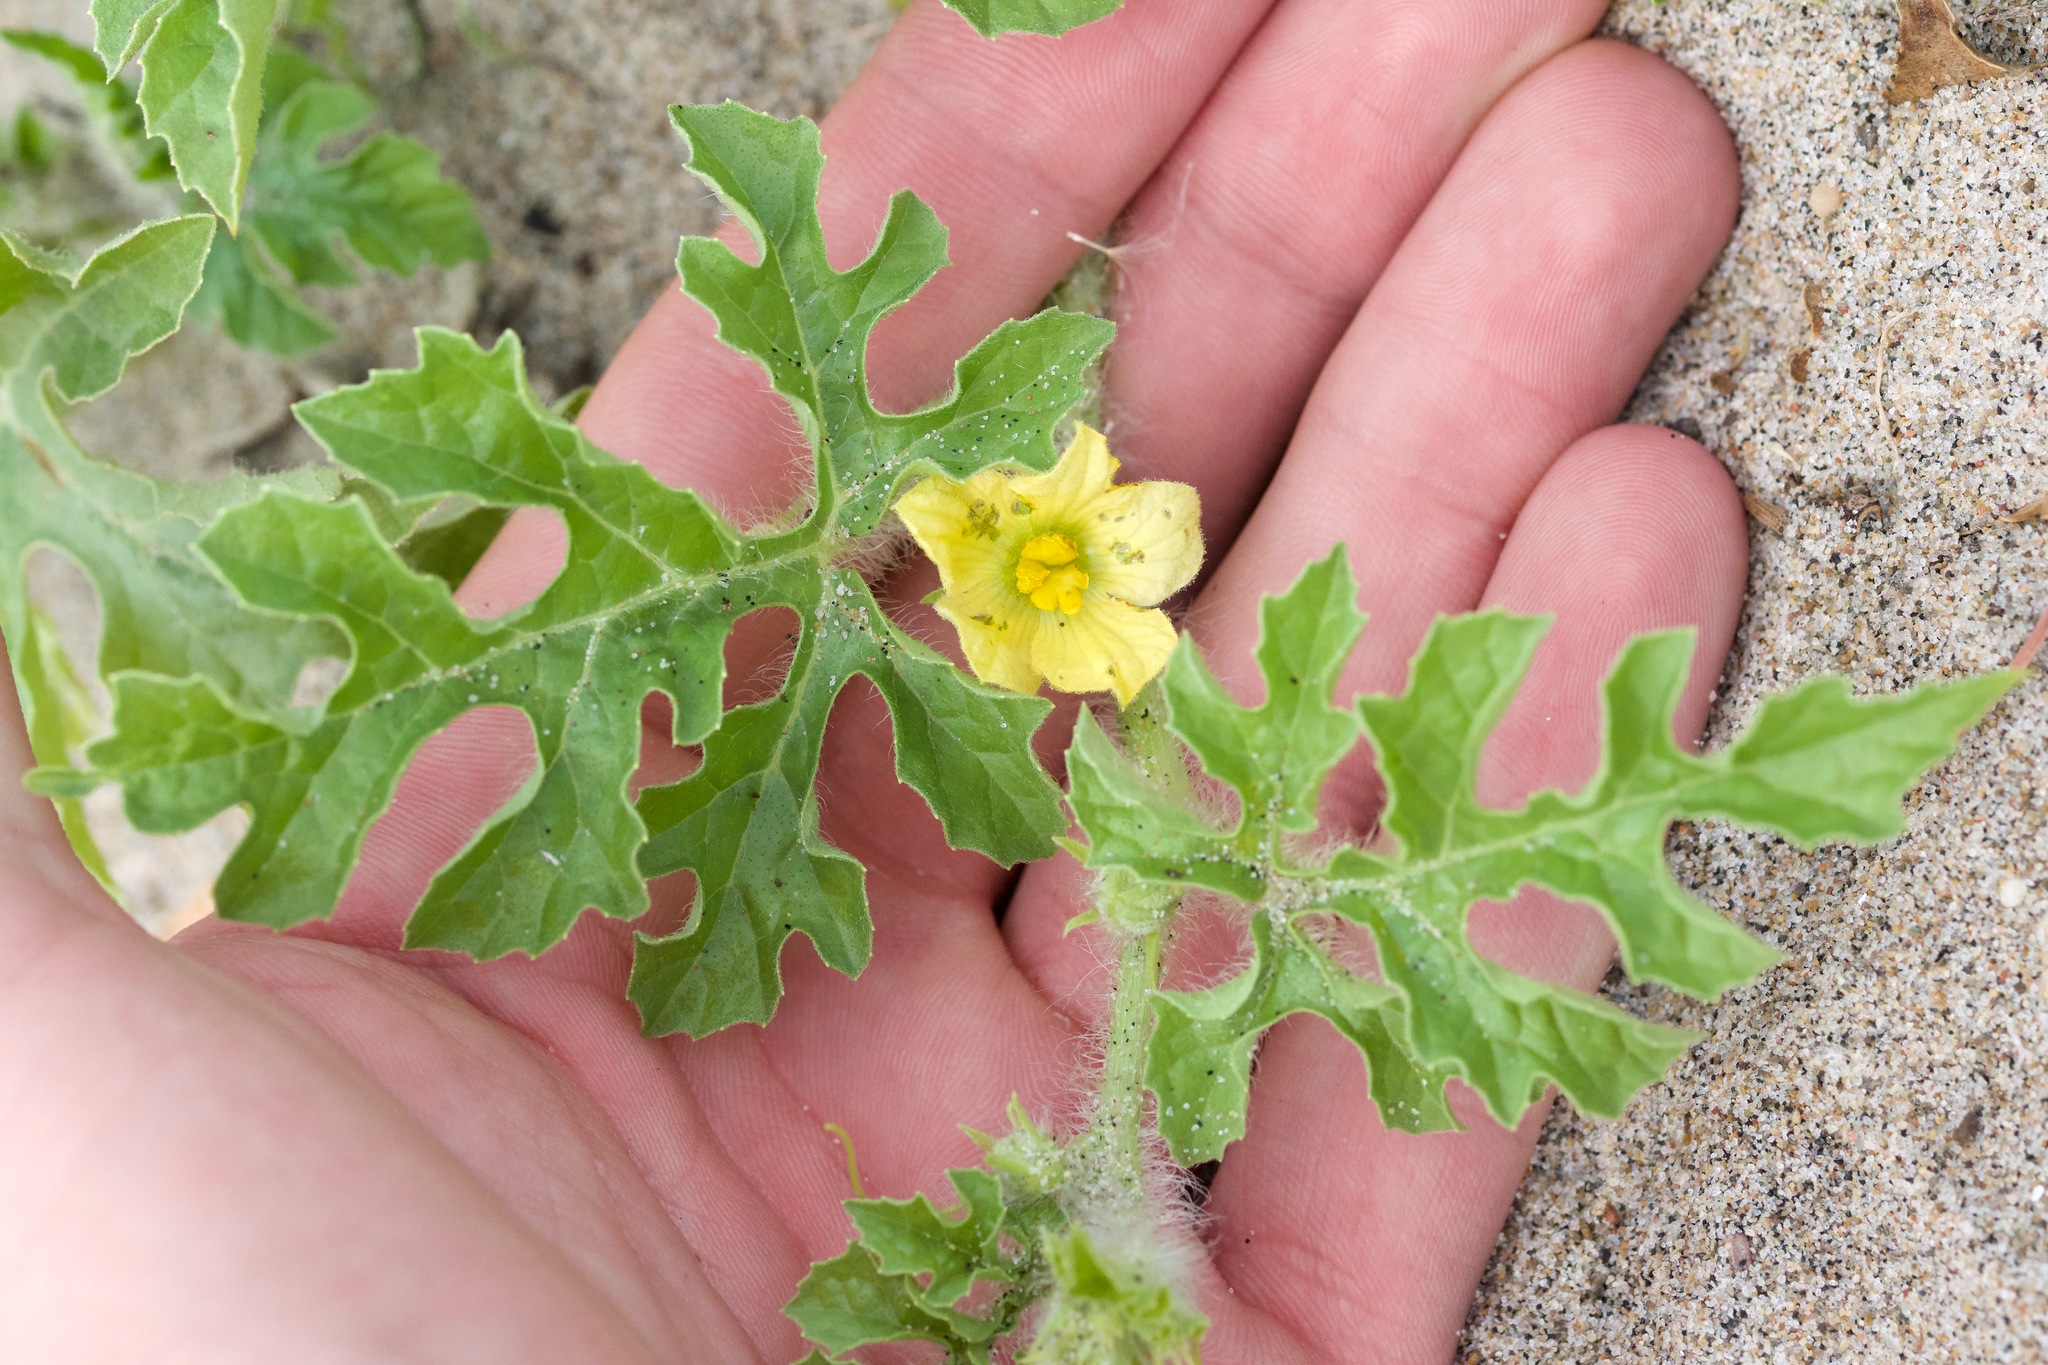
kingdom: Plantae
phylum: Tracheophyta
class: Magnoliopsida
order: Cucurbitales
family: Cucurbitaceae
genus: Citrullus
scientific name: Citrullus lanatus
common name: Watermelon
